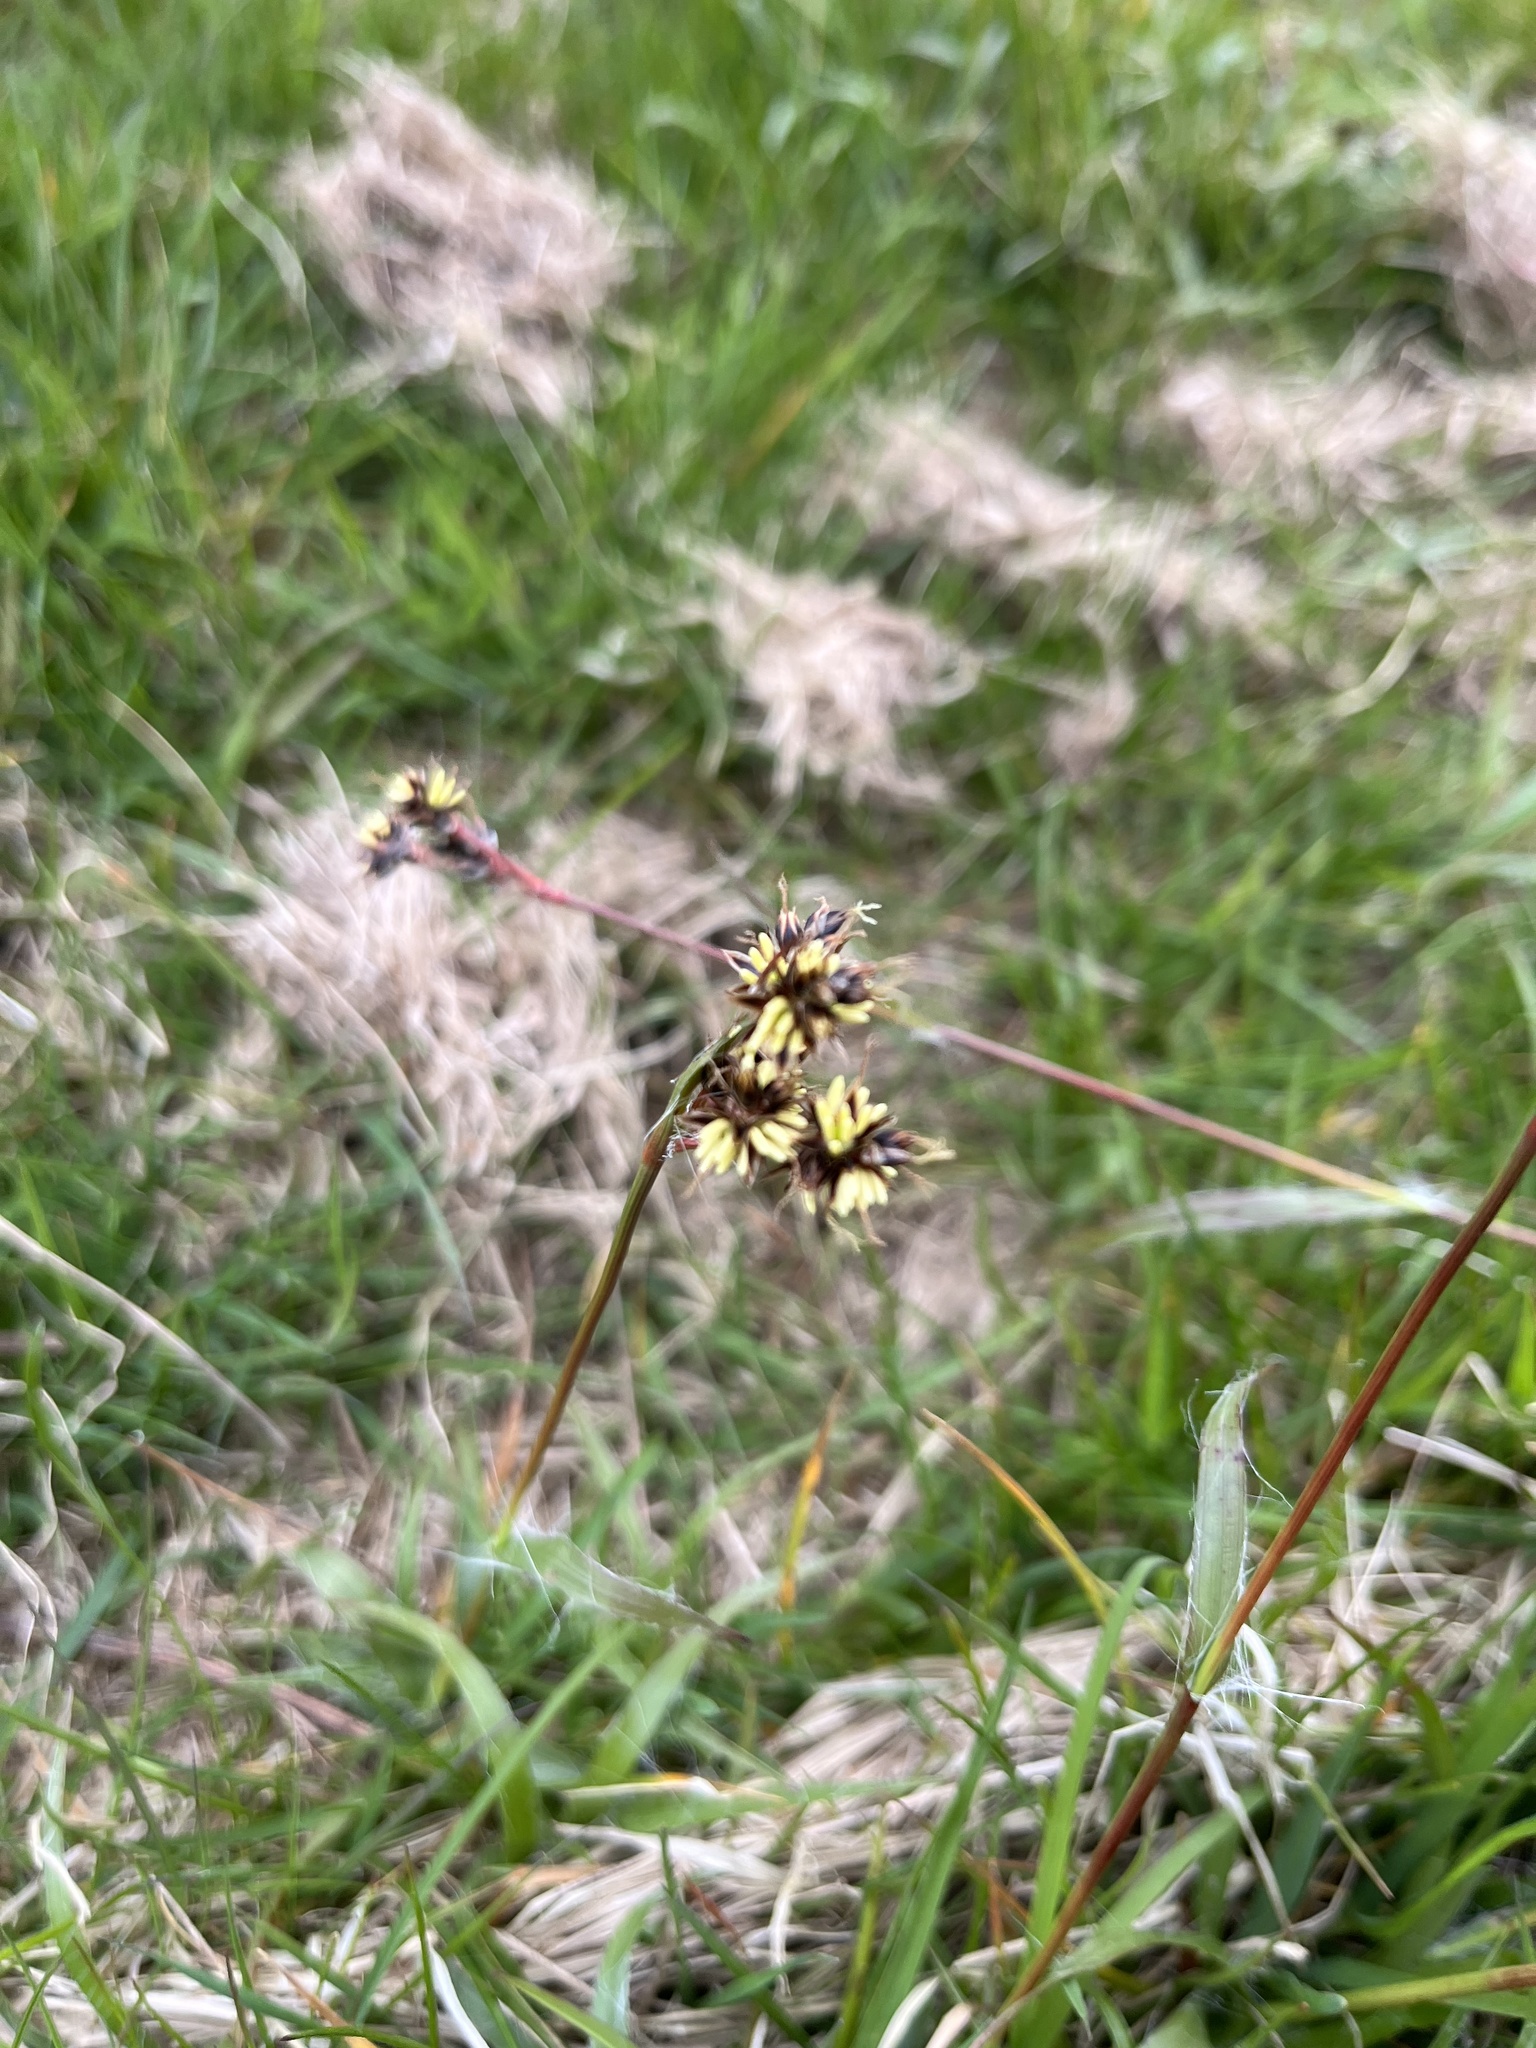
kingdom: Plantae
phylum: Tracheophyta
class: Liliopsida
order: Poales
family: Juncaceae
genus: Luzula
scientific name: Luzula campestris
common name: Field wood-rush
